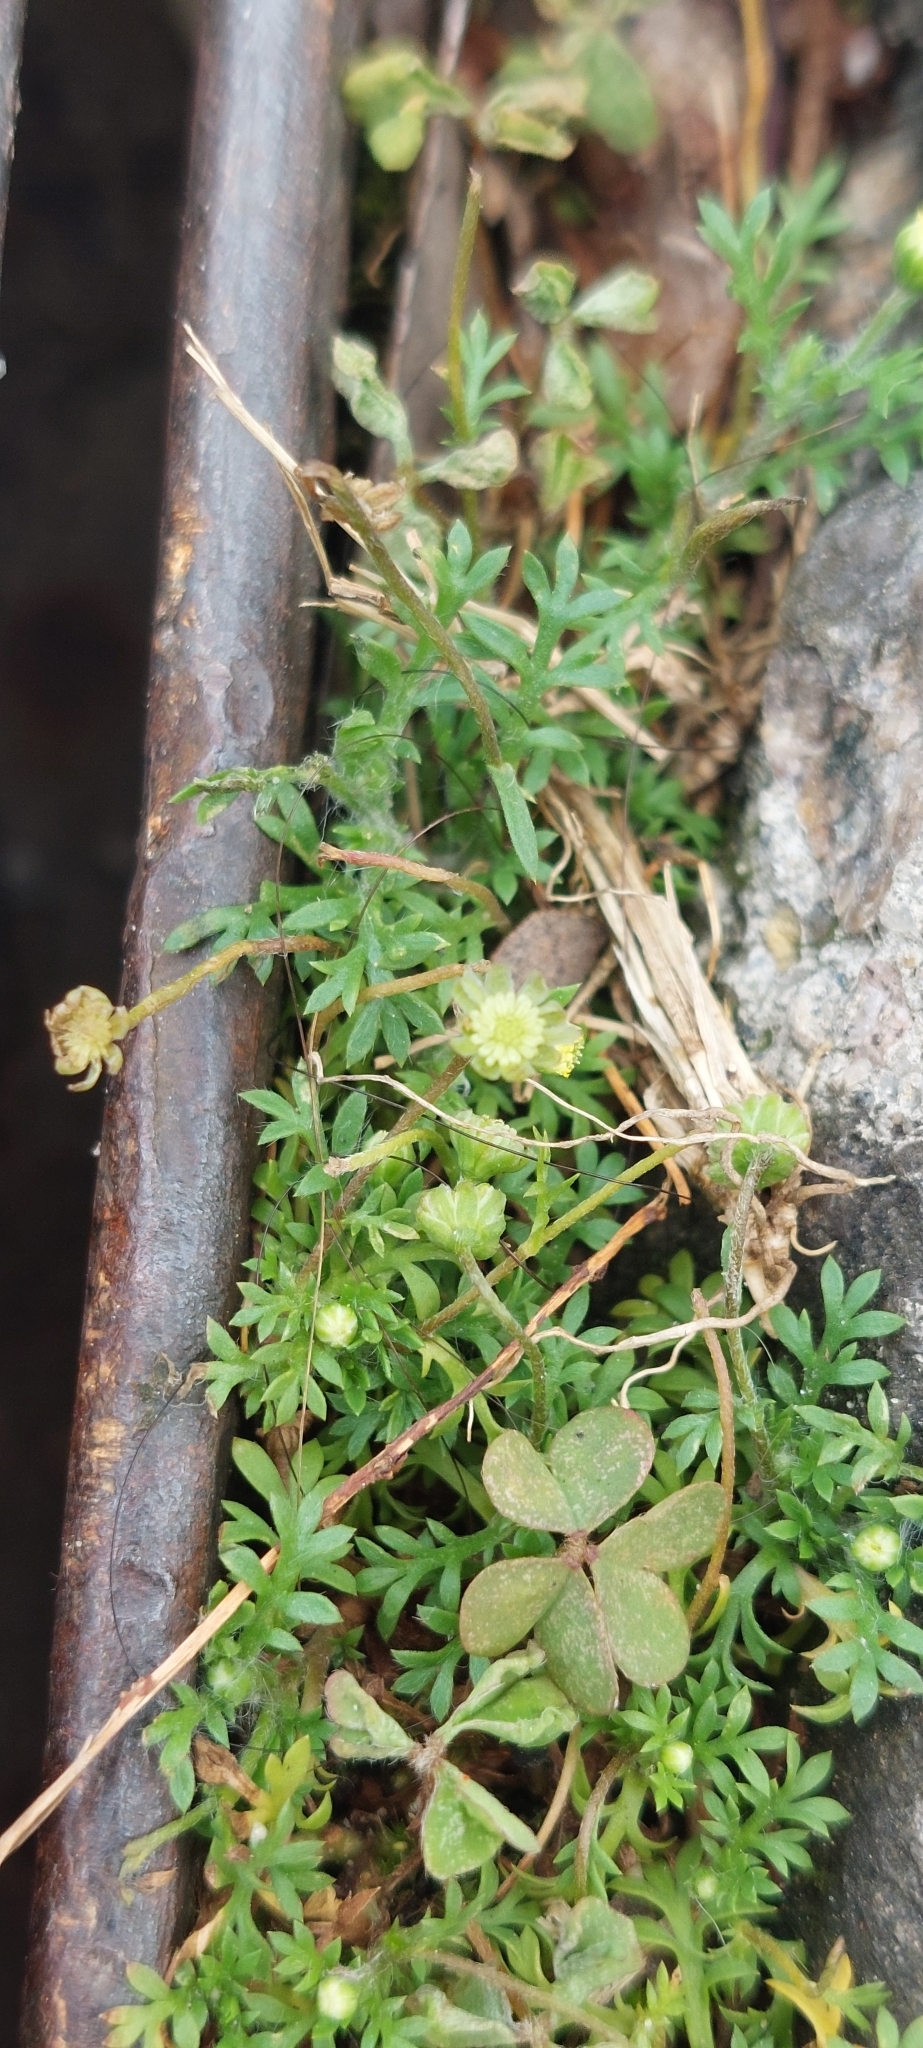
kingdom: Plantae
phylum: Tracheophyta
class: Magnoliopsida
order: Asterales
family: Asteraceae
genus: Cotula
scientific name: Cotula australis
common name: Australian waterbuttons
